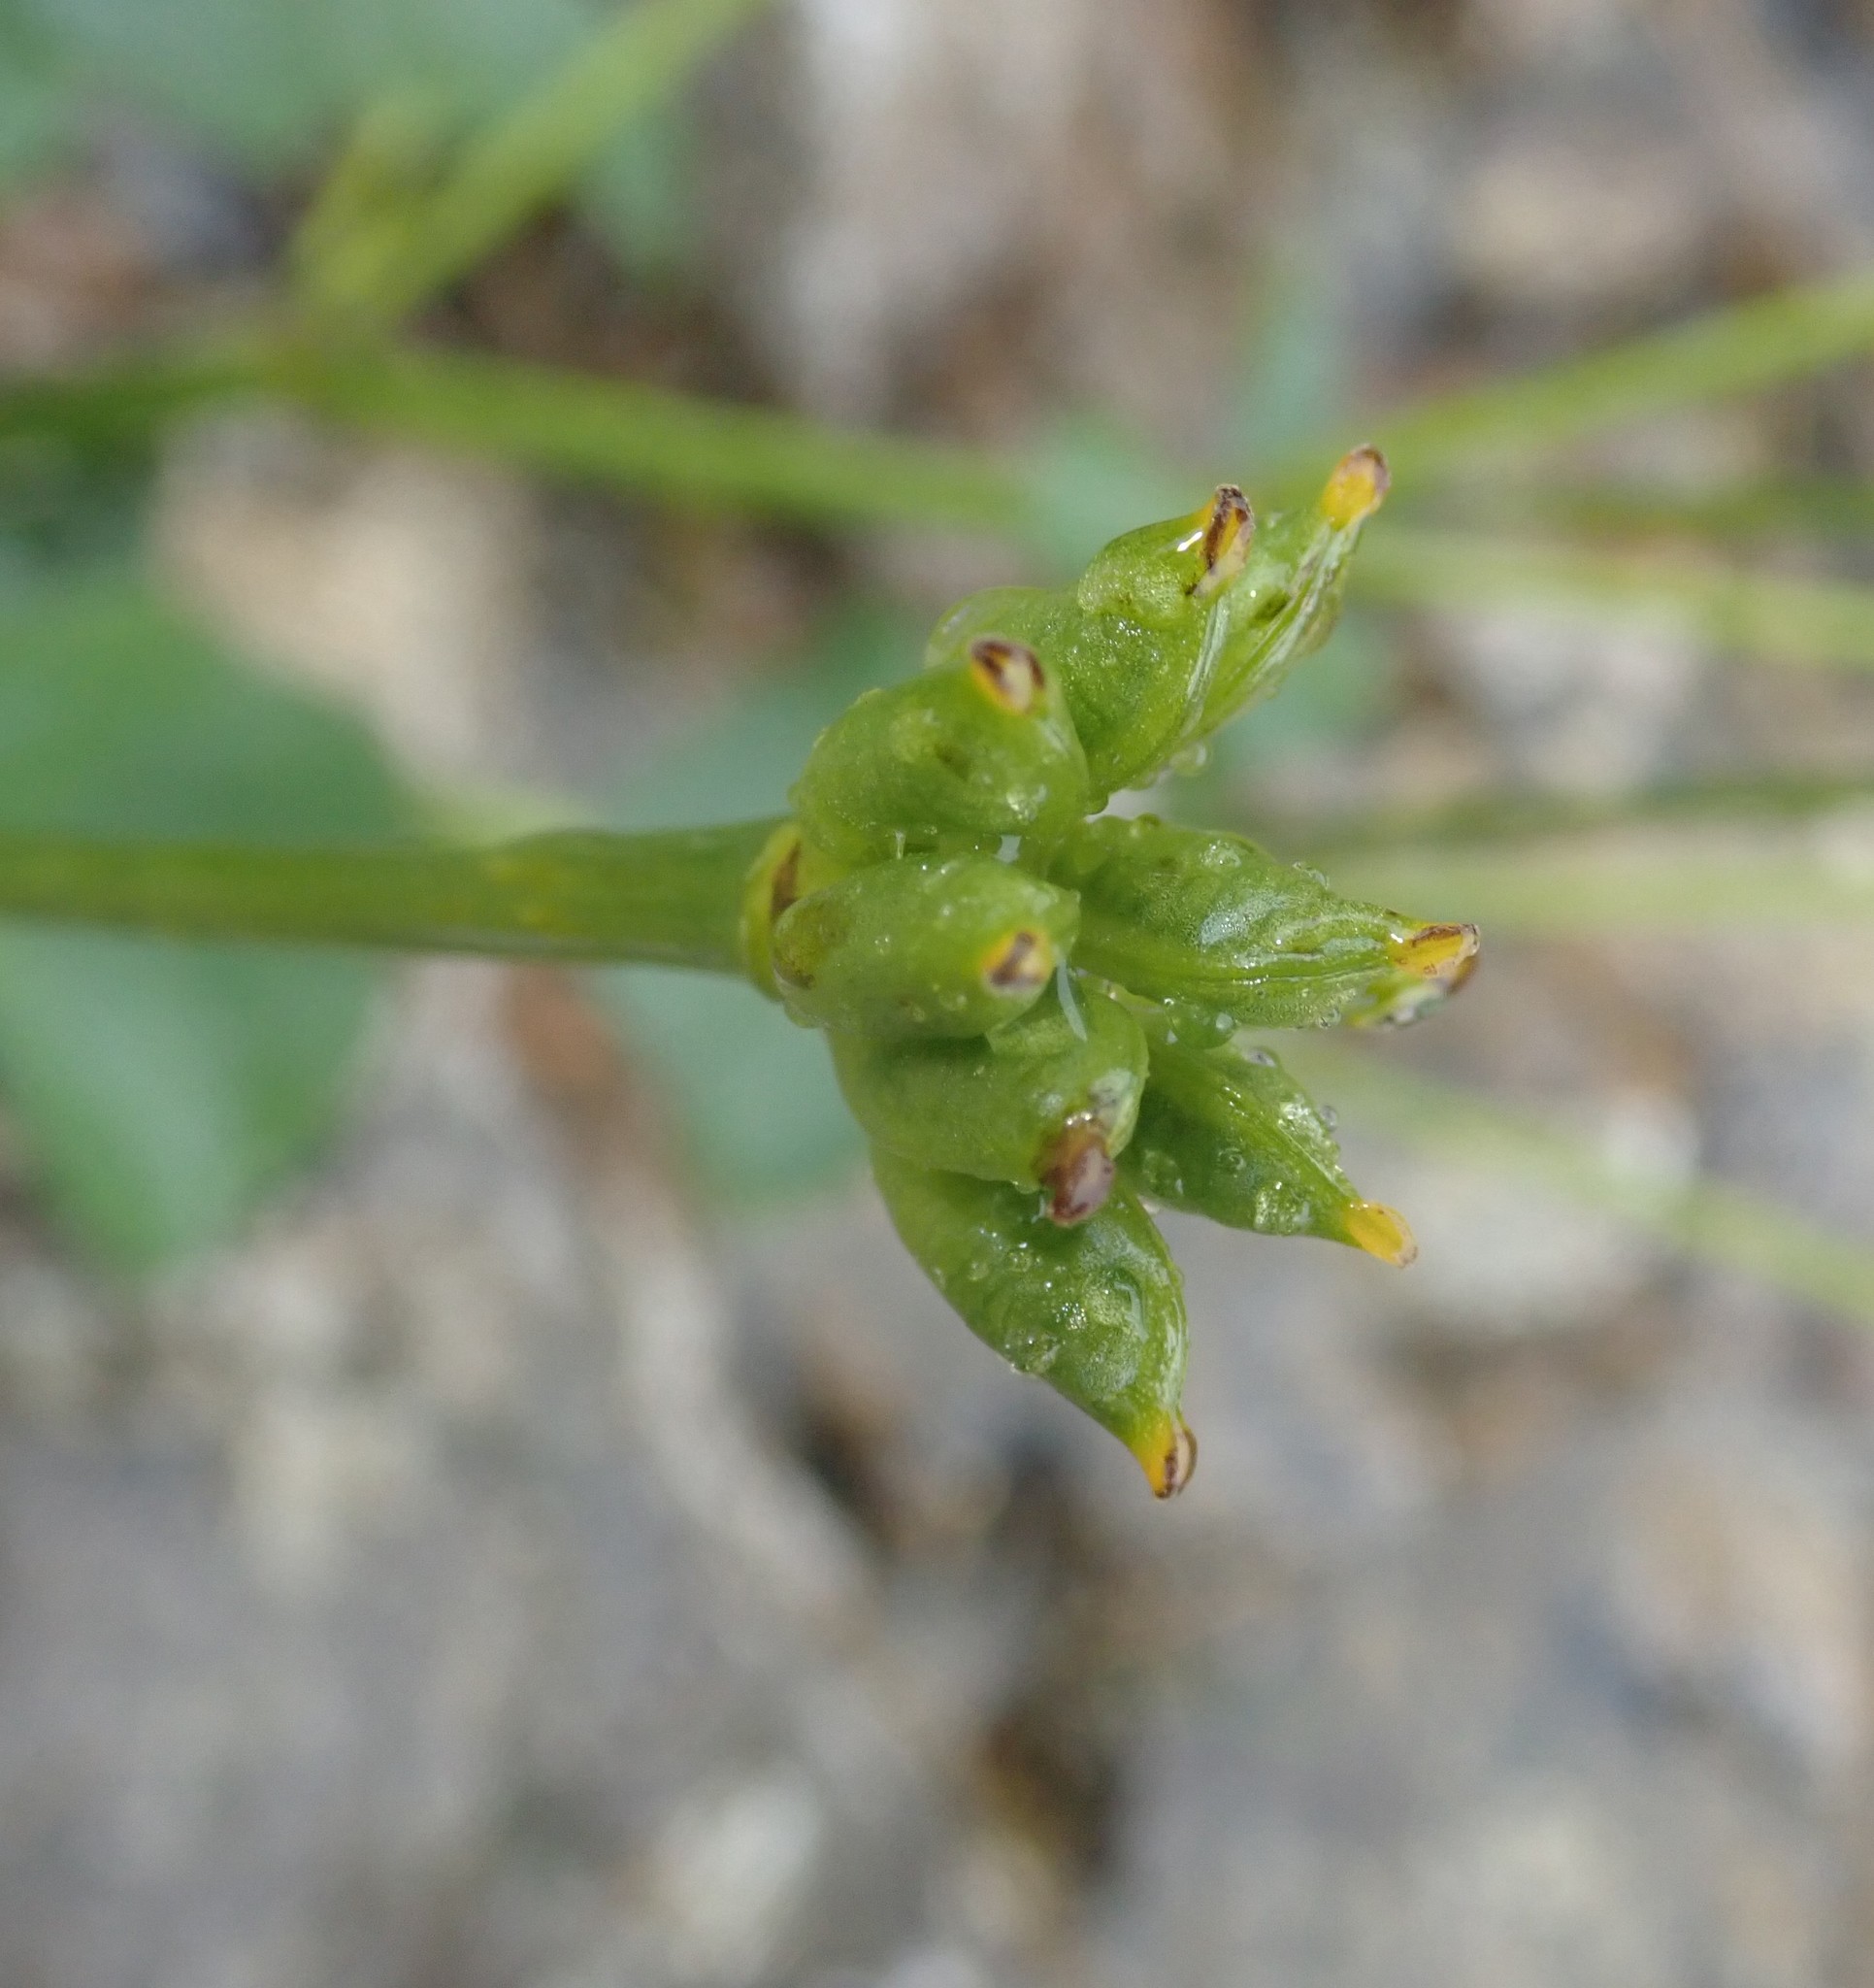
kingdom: Plantae
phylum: Tracheophyta
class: Magnoliopsida
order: Ranunculales
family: Ranunculaceae
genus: Caltha
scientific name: Caltha palustris
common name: Marsh marigold
